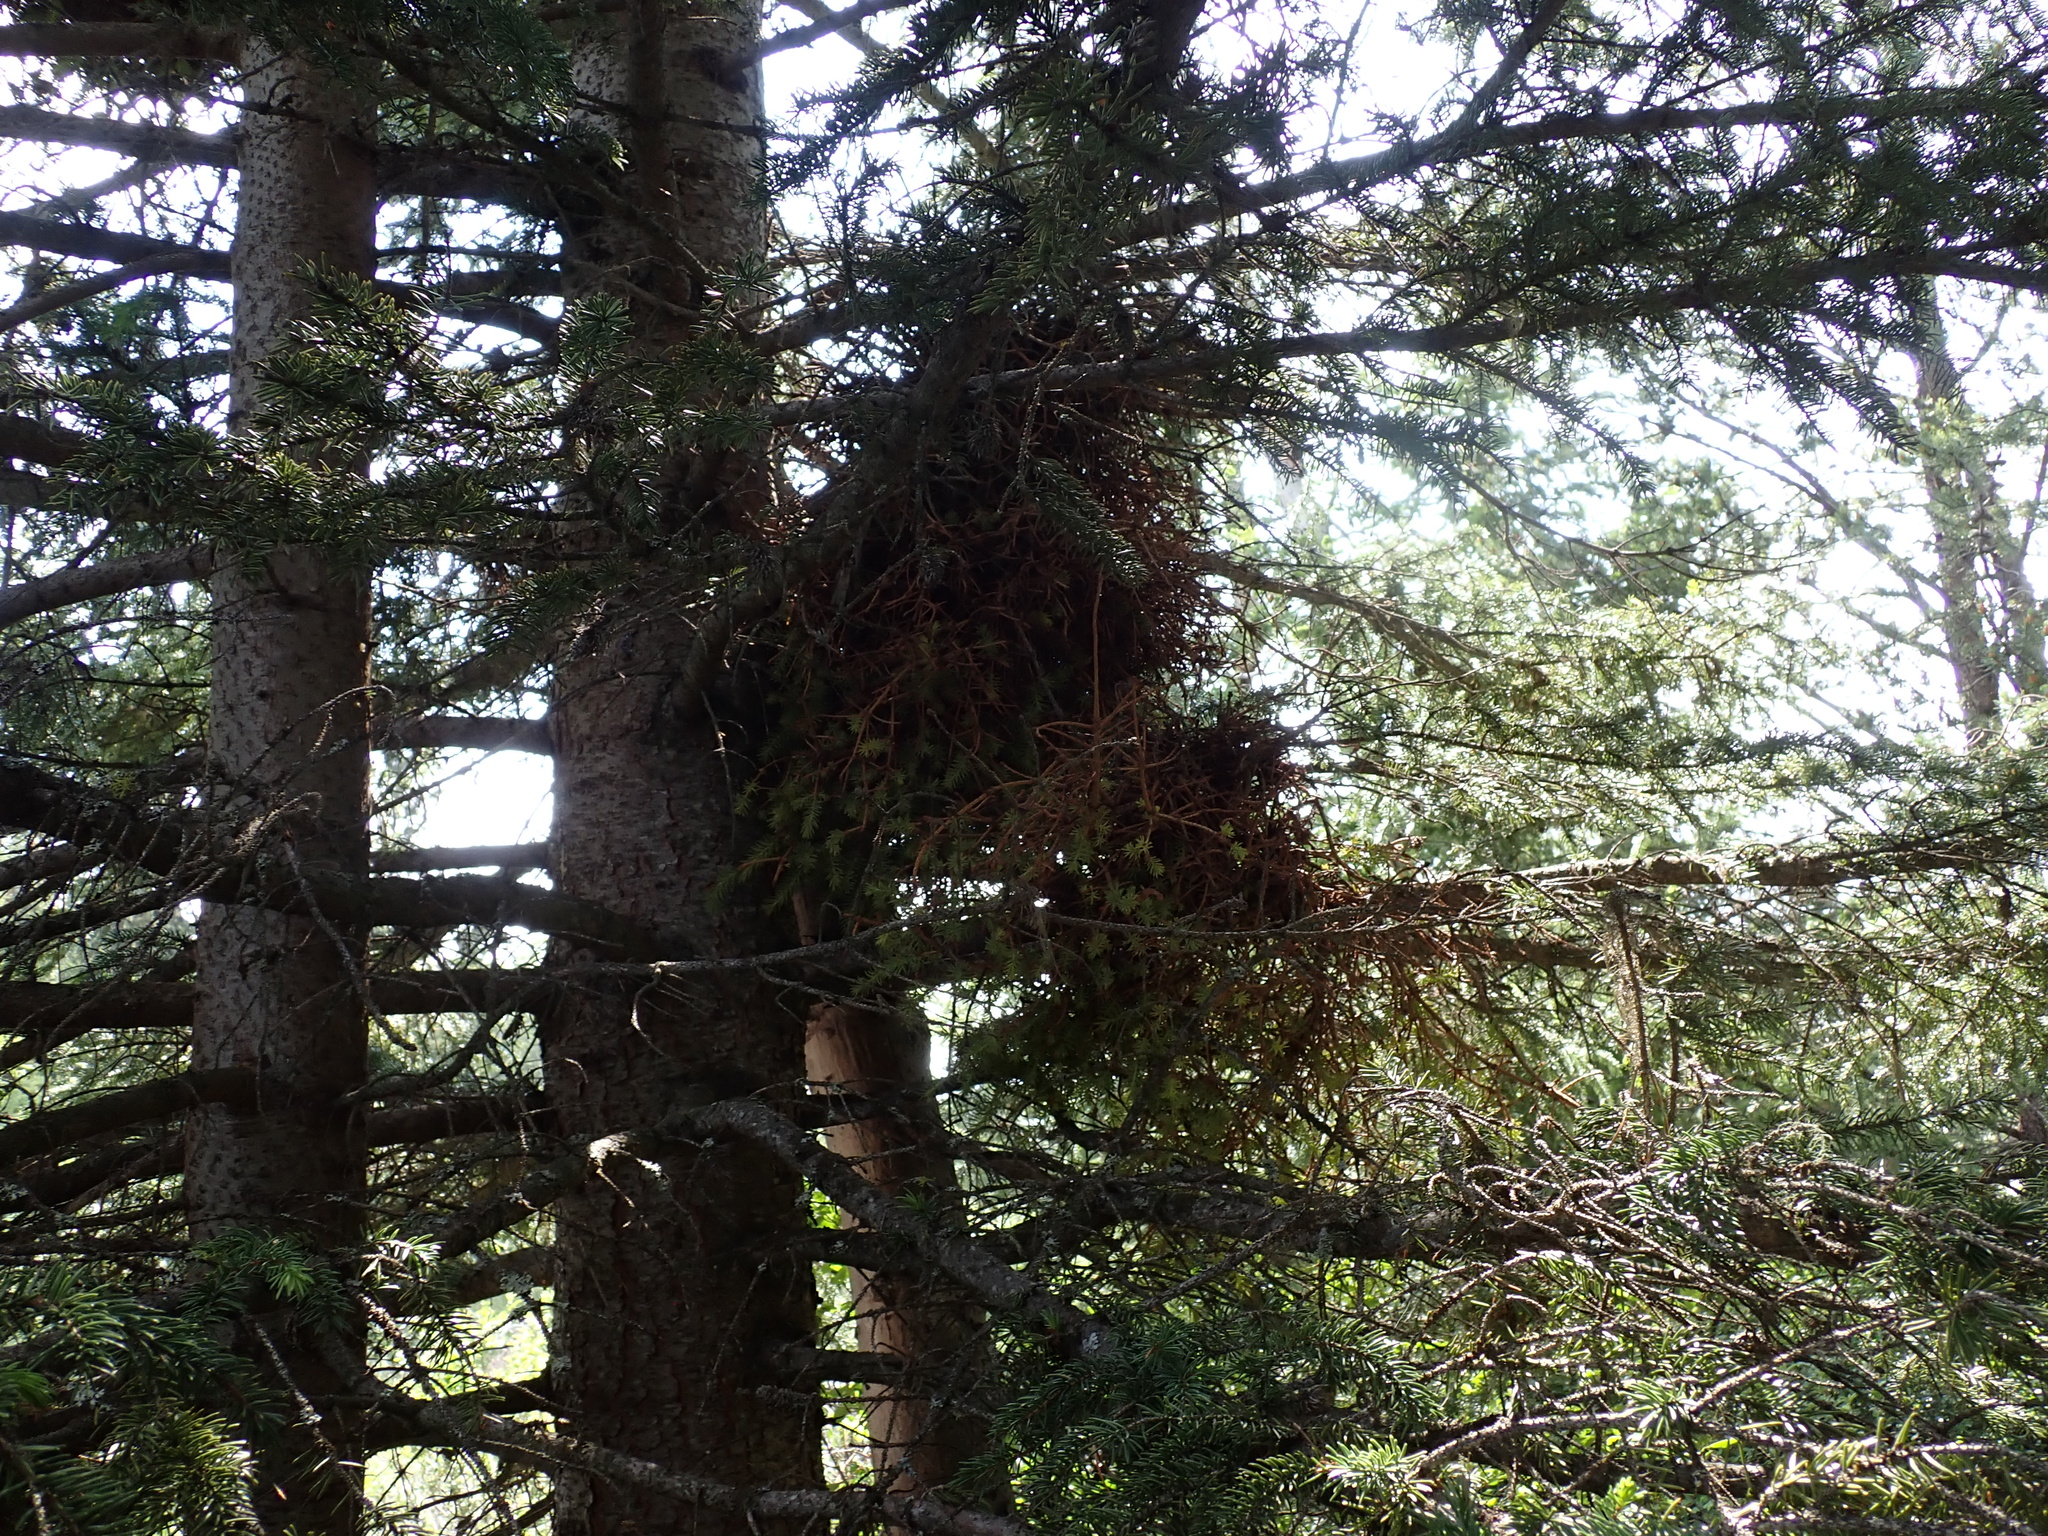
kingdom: Fungi
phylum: Basidiomycota
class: Pucciniomycetes
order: Pucciniales
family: Coleosporiaceae
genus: Chrysomyxa
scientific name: Chrysomyxa arctostaphyli
